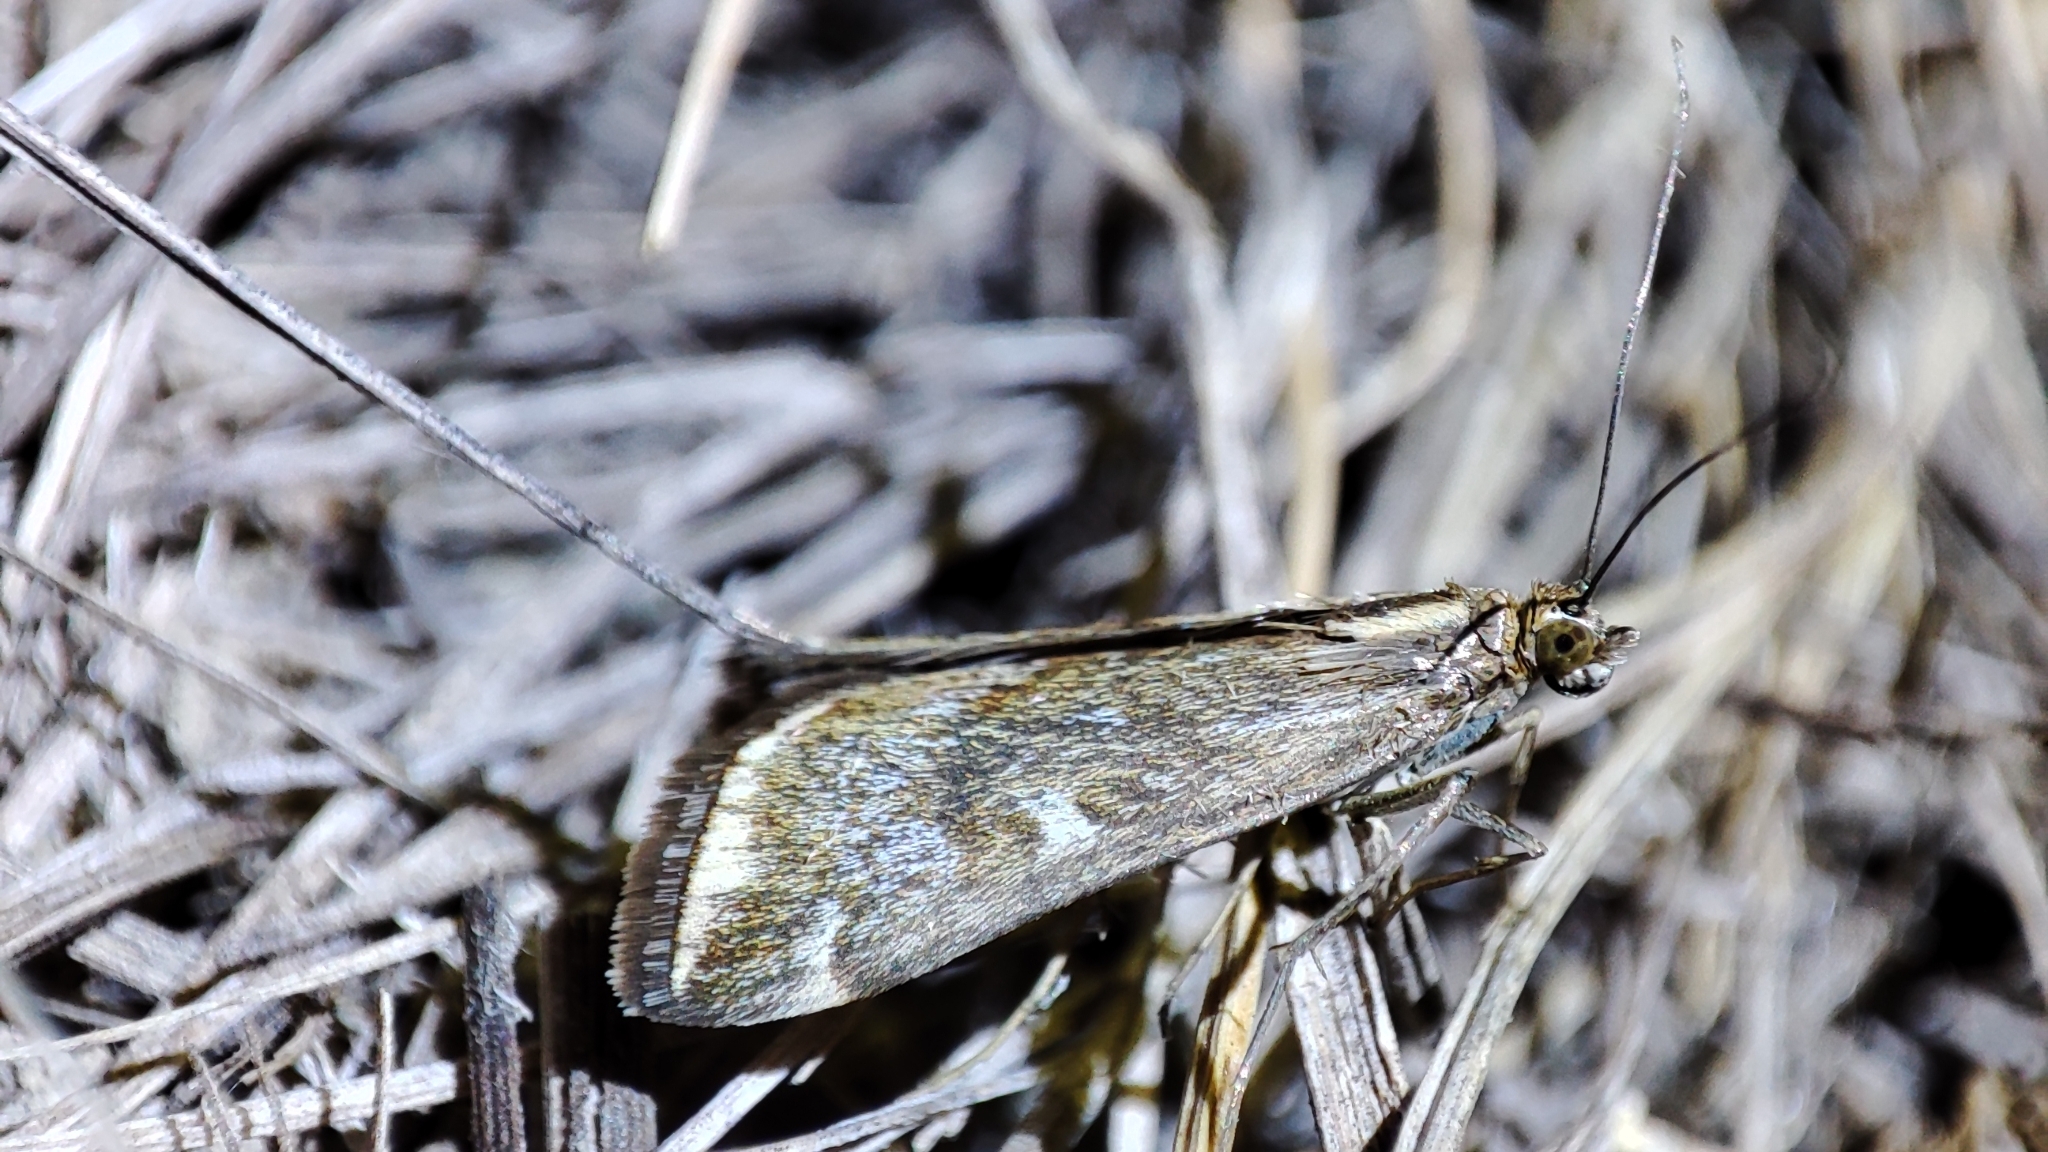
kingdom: Animalia
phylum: Arthropoda
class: Insecta
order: Lepidoptera
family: Crambidae
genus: Loxostege
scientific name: Loxostege sticticalis
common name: Crambid moth
